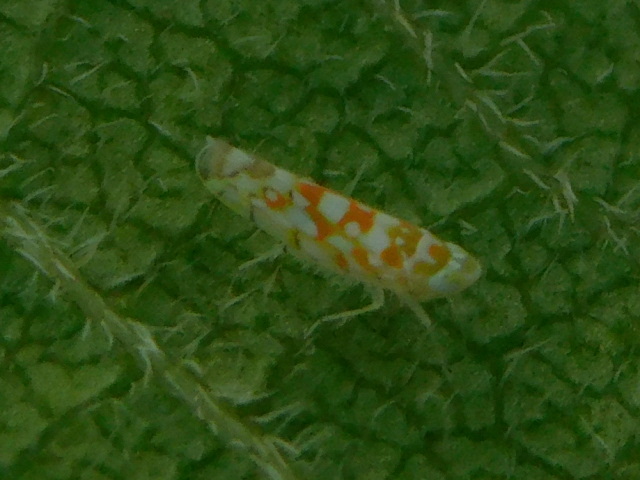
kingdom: Animalia
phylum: Arthropoda
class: Insecta
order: Hemiptera
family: Cicadellidae
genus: Protalebra
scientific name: Protalebra nexa
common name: Leafhopper
